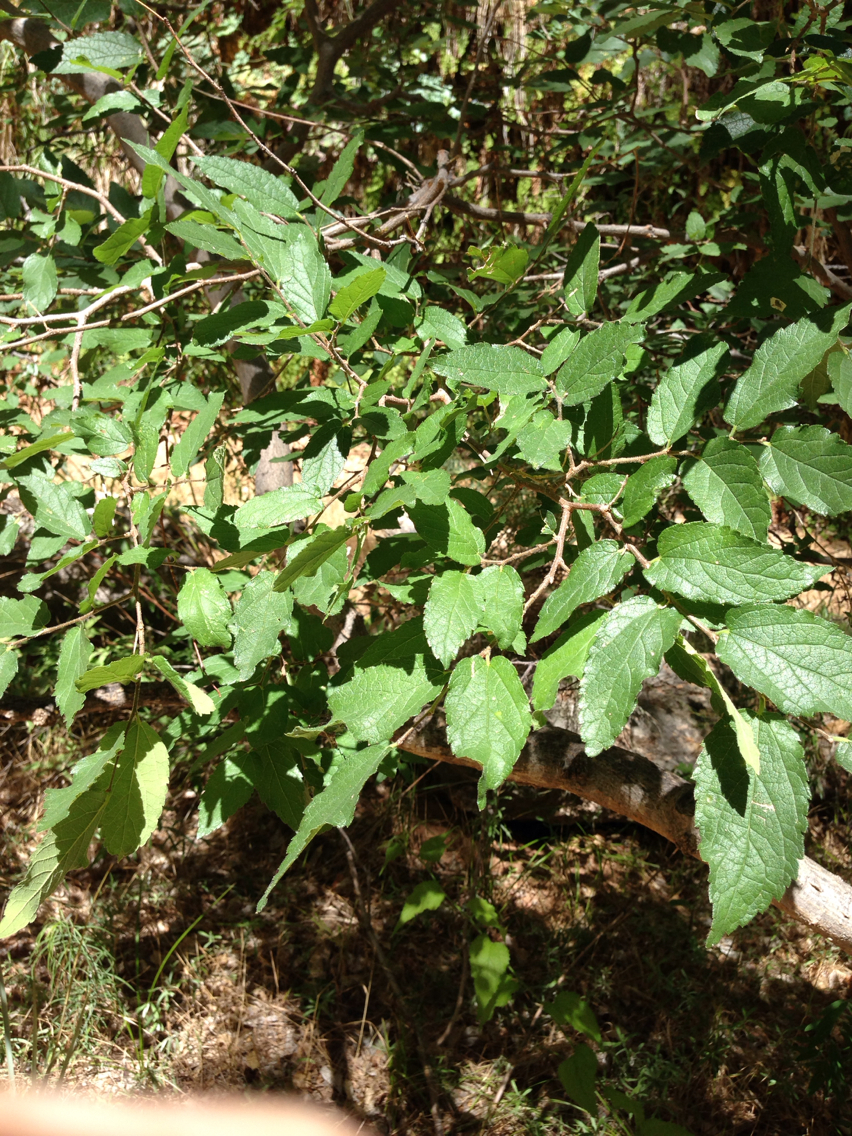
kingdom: Plantae
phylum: Tracheophyta
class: Magnoliopsida
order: Rosales
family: Cannabaceae
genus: Celtis
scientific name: Celtis reticulata
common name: Netleaf hackberry
